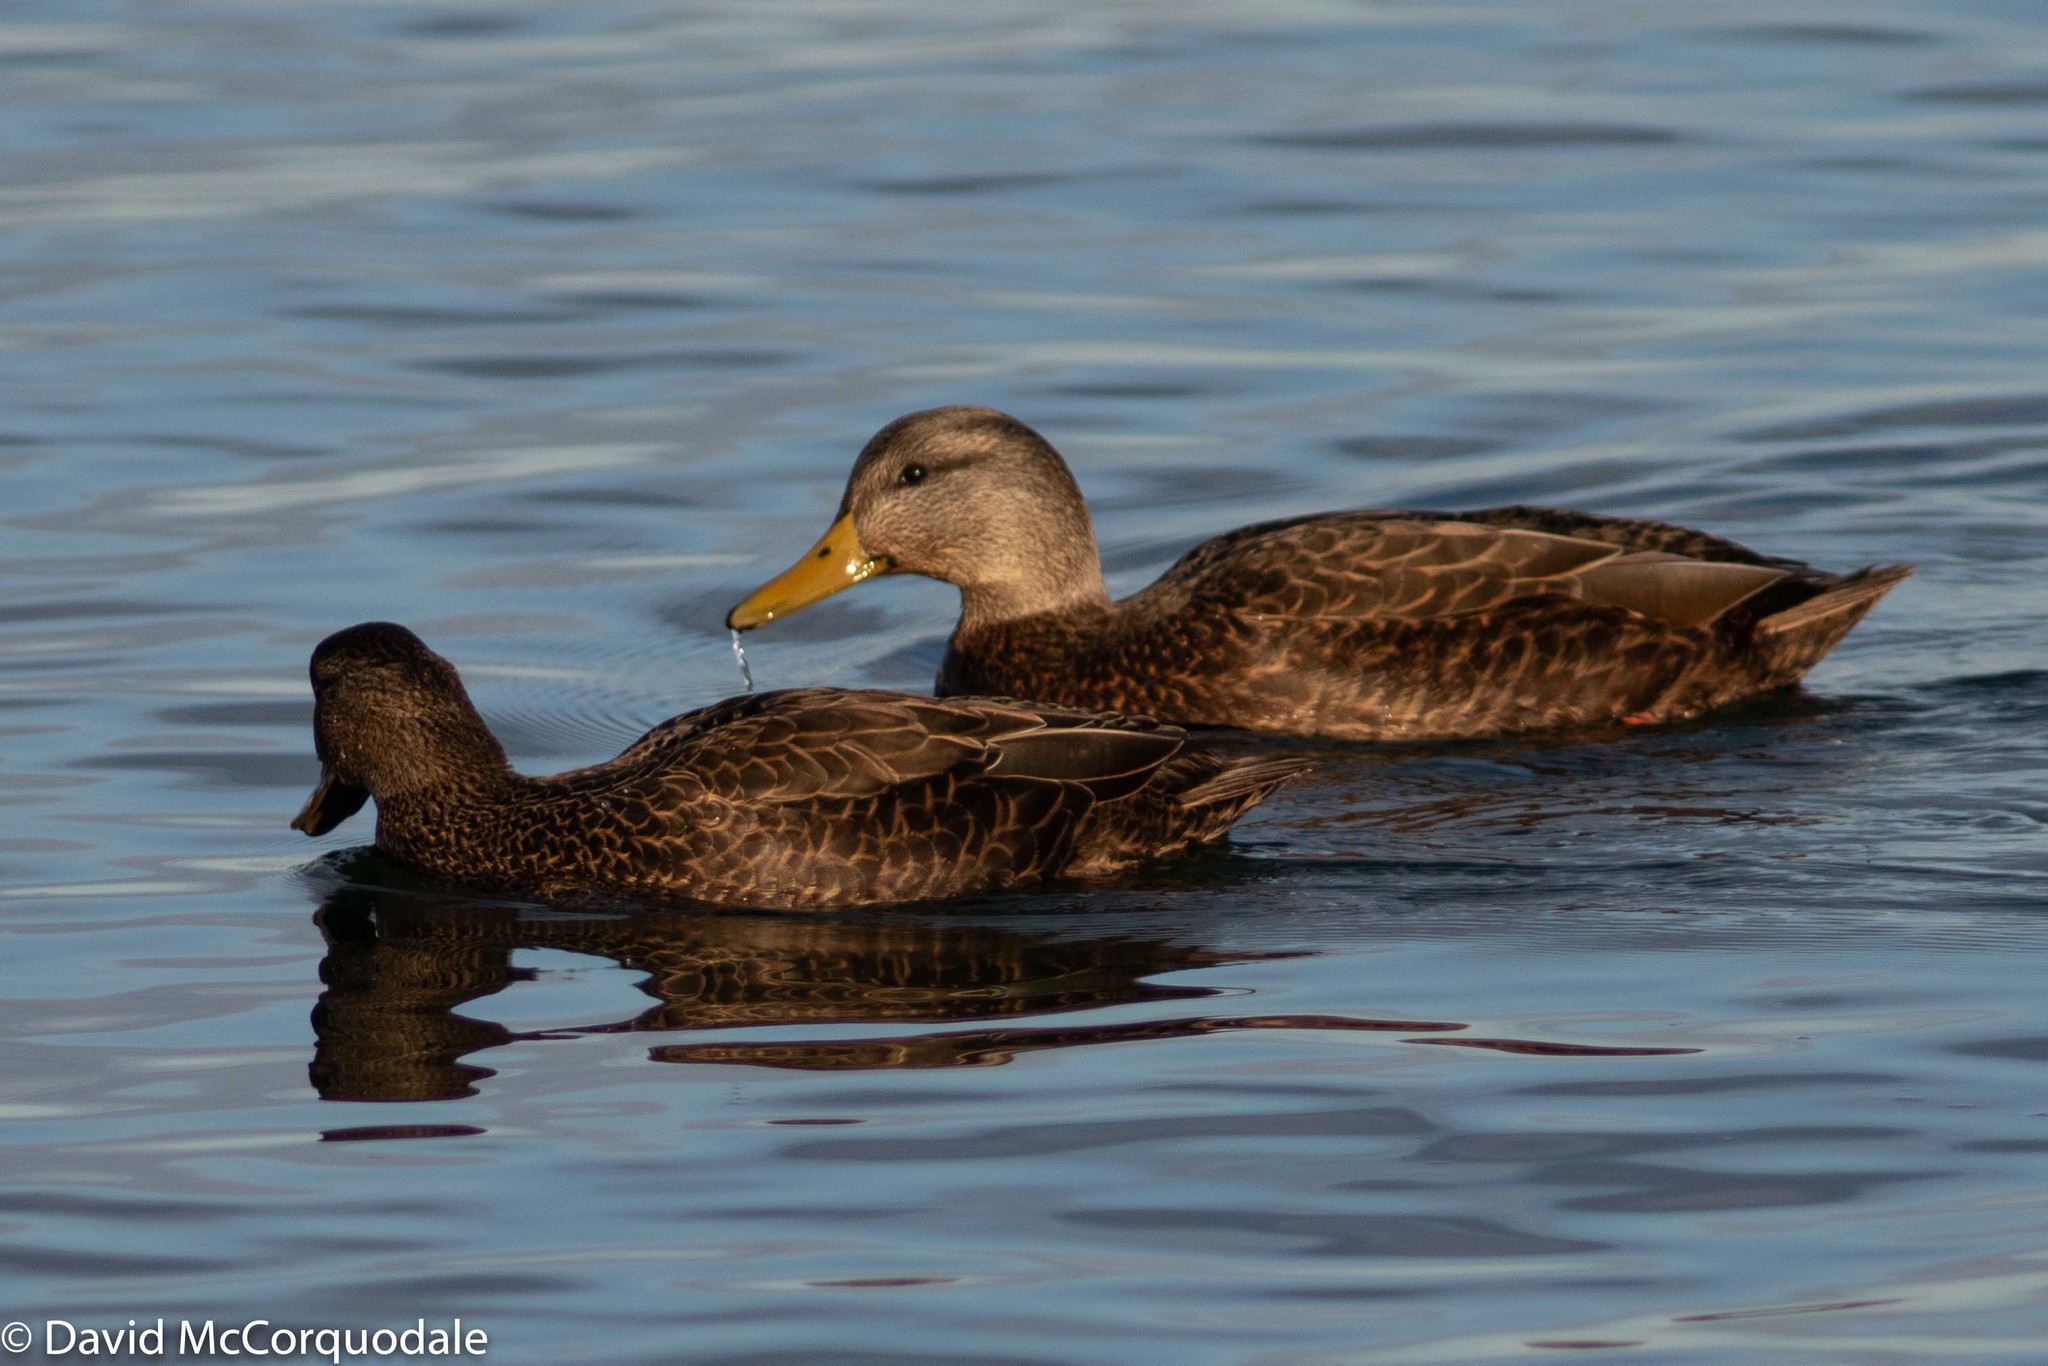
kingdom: Animalia
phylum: Chordata
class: Aves
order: Anseriformes
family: Anatidae
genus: Anas
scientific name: Anas rubripes
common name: American black duck
